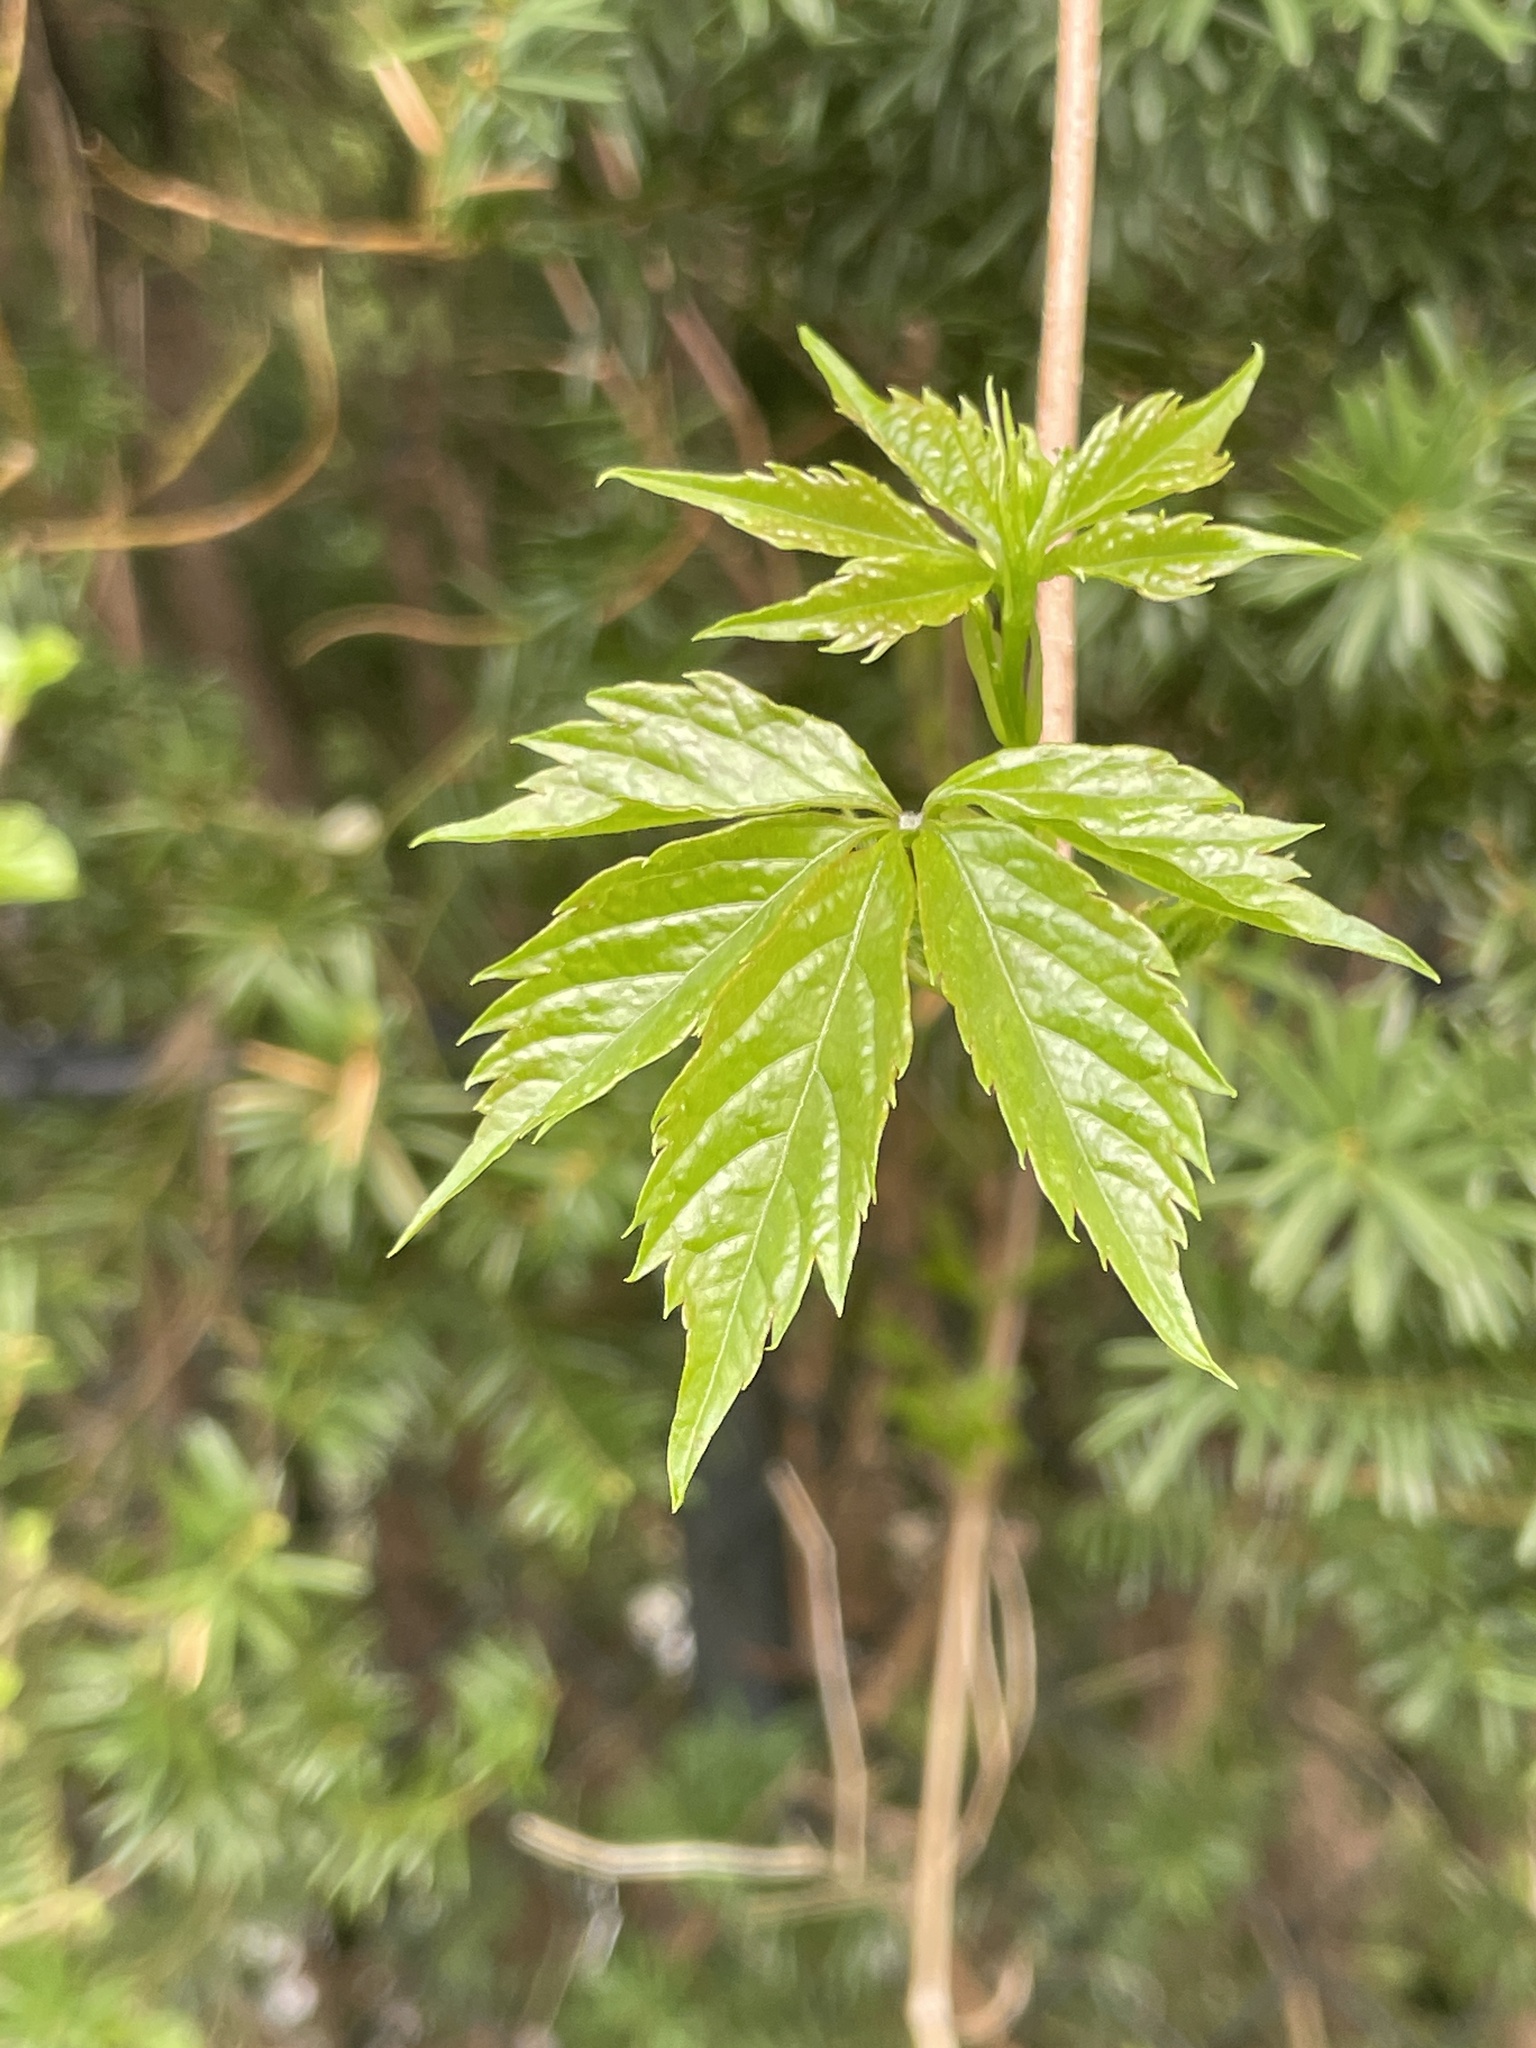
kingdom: Plantae
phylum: Tracheophyta
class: Magnoliopsida
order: Vitales
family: Vitaceae
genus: Parthenocissus
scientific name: Parthenocissus quinquefolia
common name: Virginia-creeper
